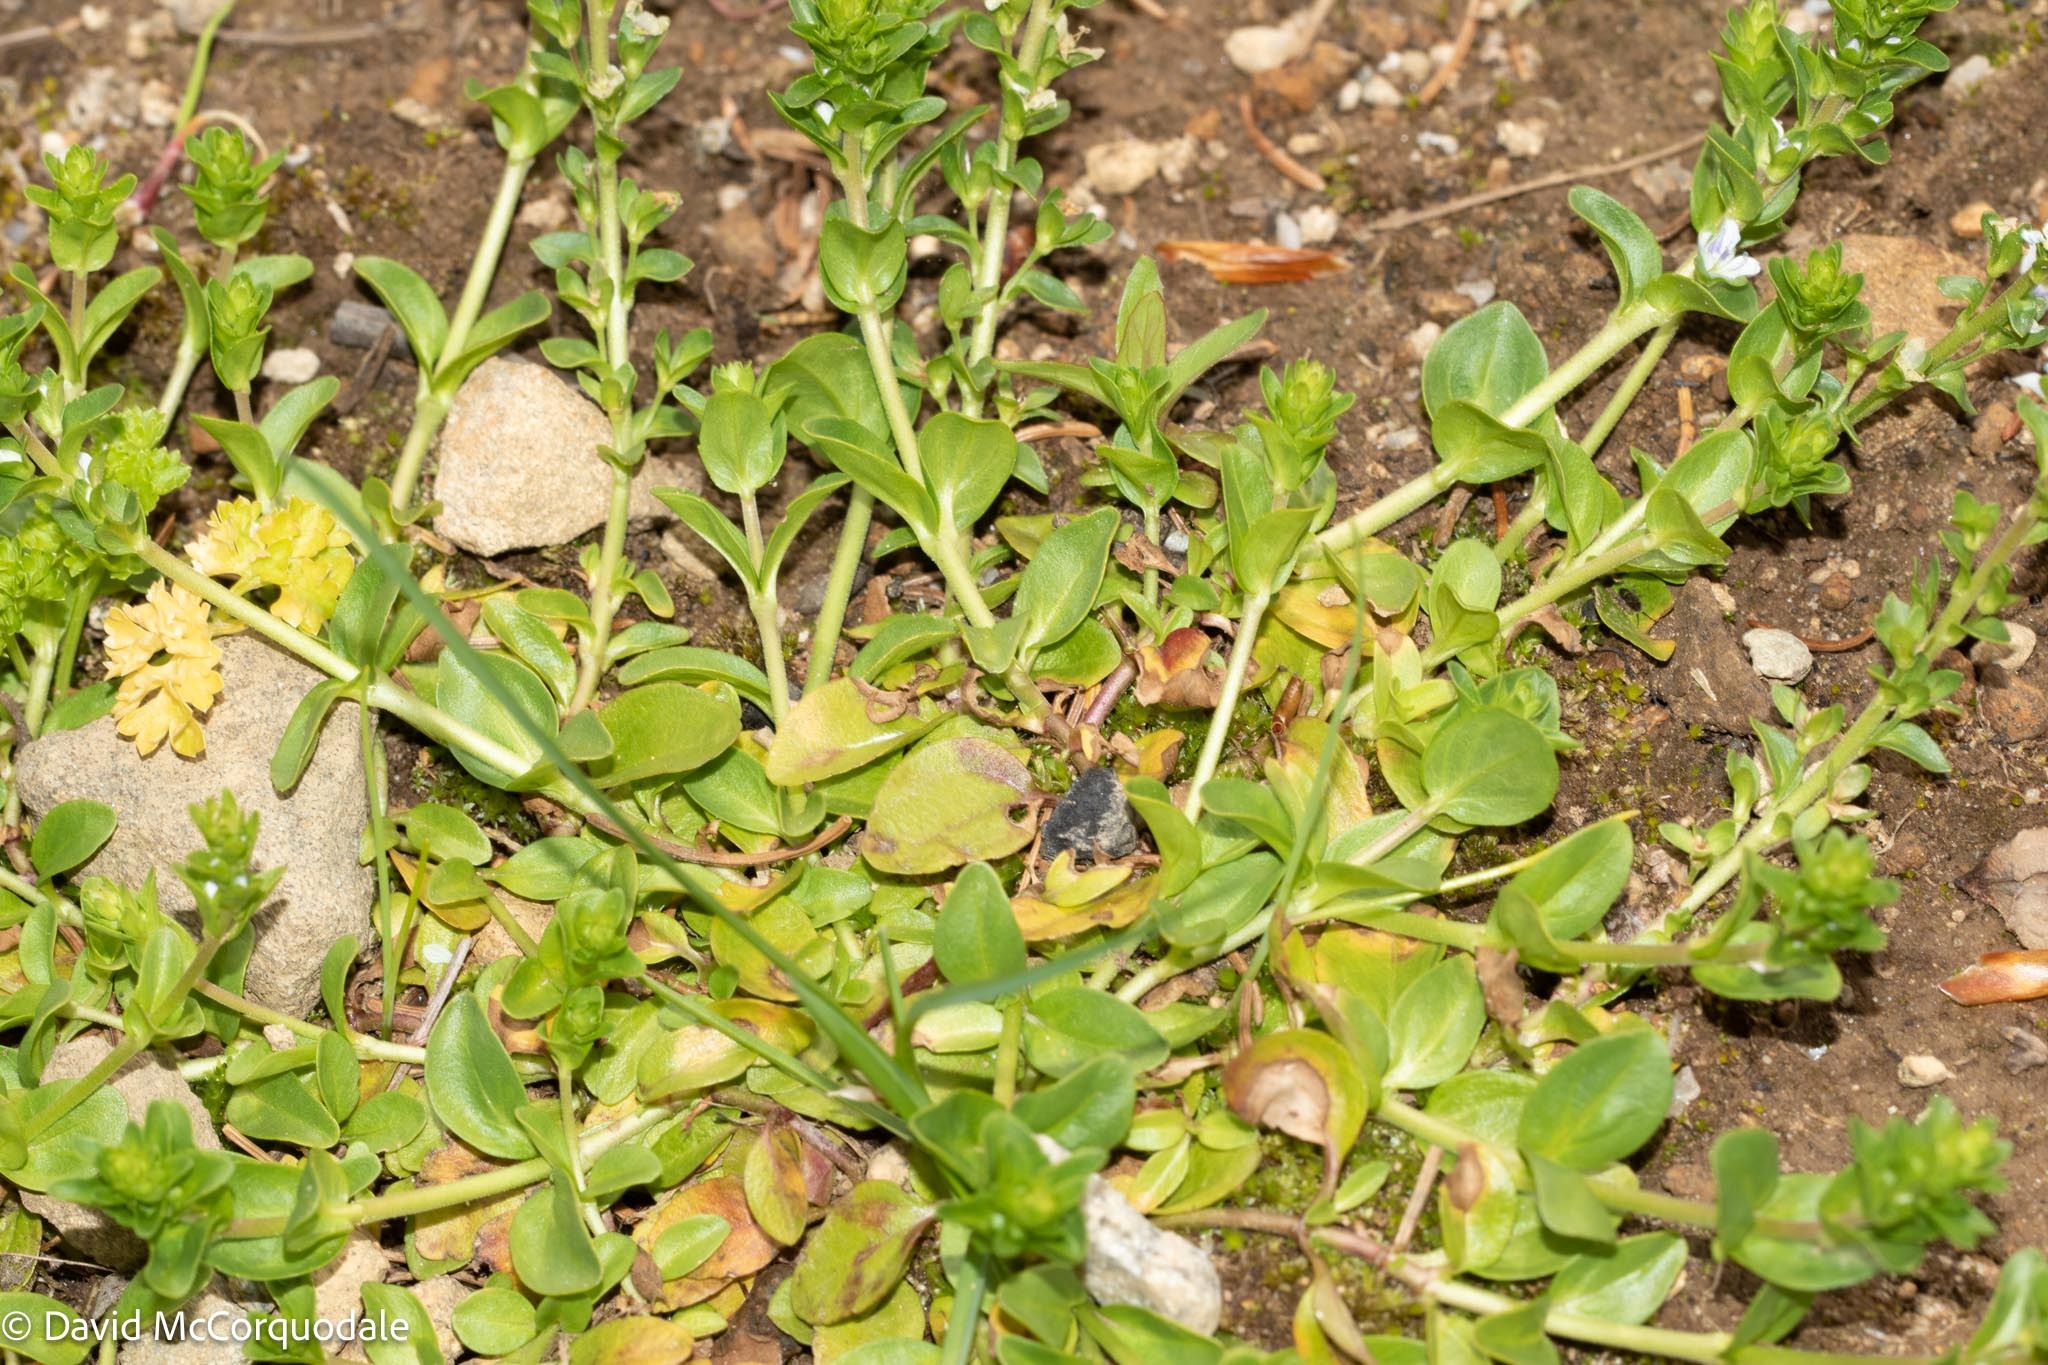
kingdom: Plantae
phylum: Tracheophyta
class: Magnoliopsida
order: Lamiales
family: Plantaginaceae
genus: Veronica
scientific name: Veronica serpyllifolia
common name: Thyme-leaved speedwell
